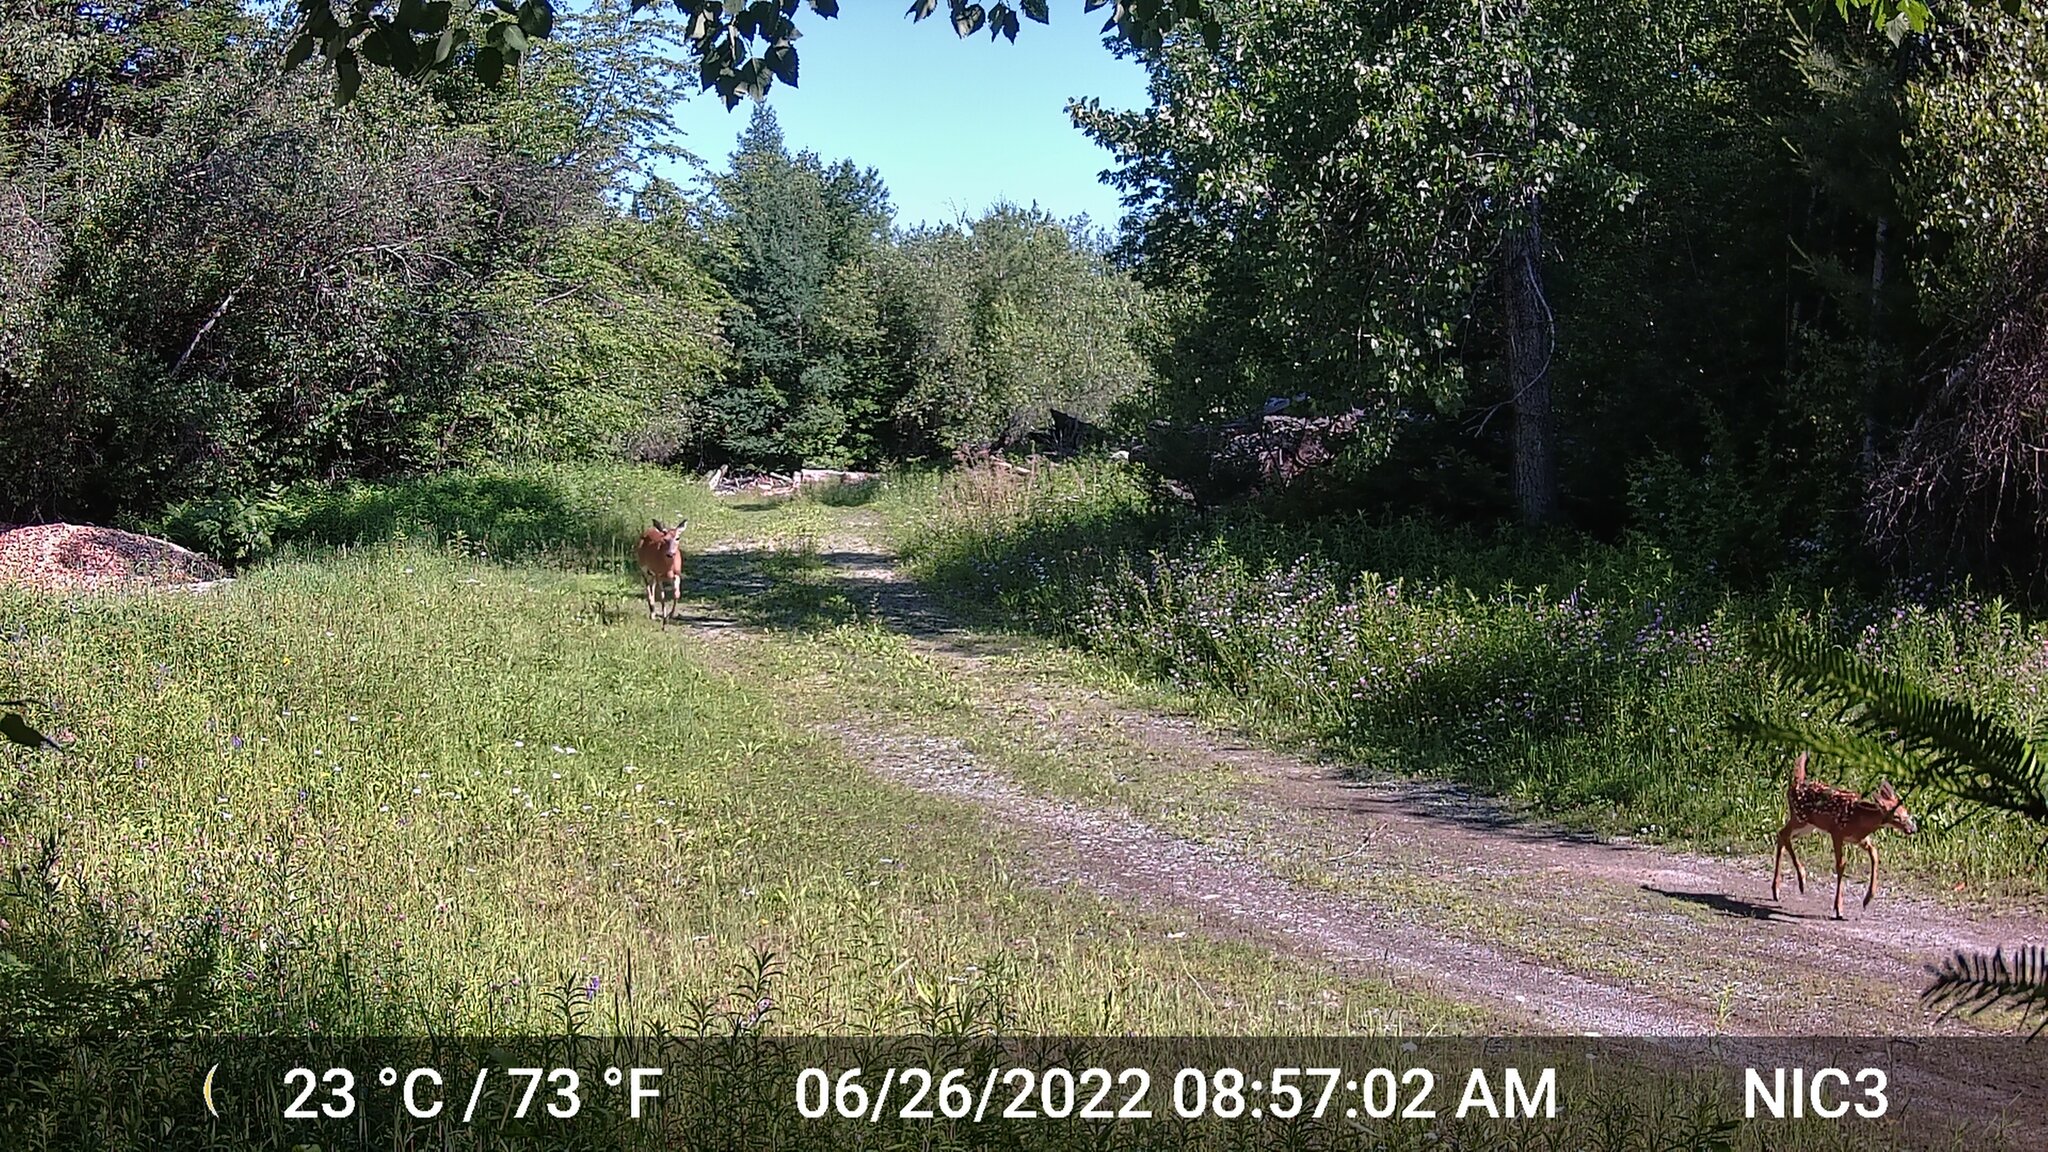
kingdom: Animalia
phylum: Chordata
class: Mammalia
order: Artiodactyla
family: Cervidae
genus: Odocoileus
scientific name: Odocoileus virginianus
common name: White-tailed deer
